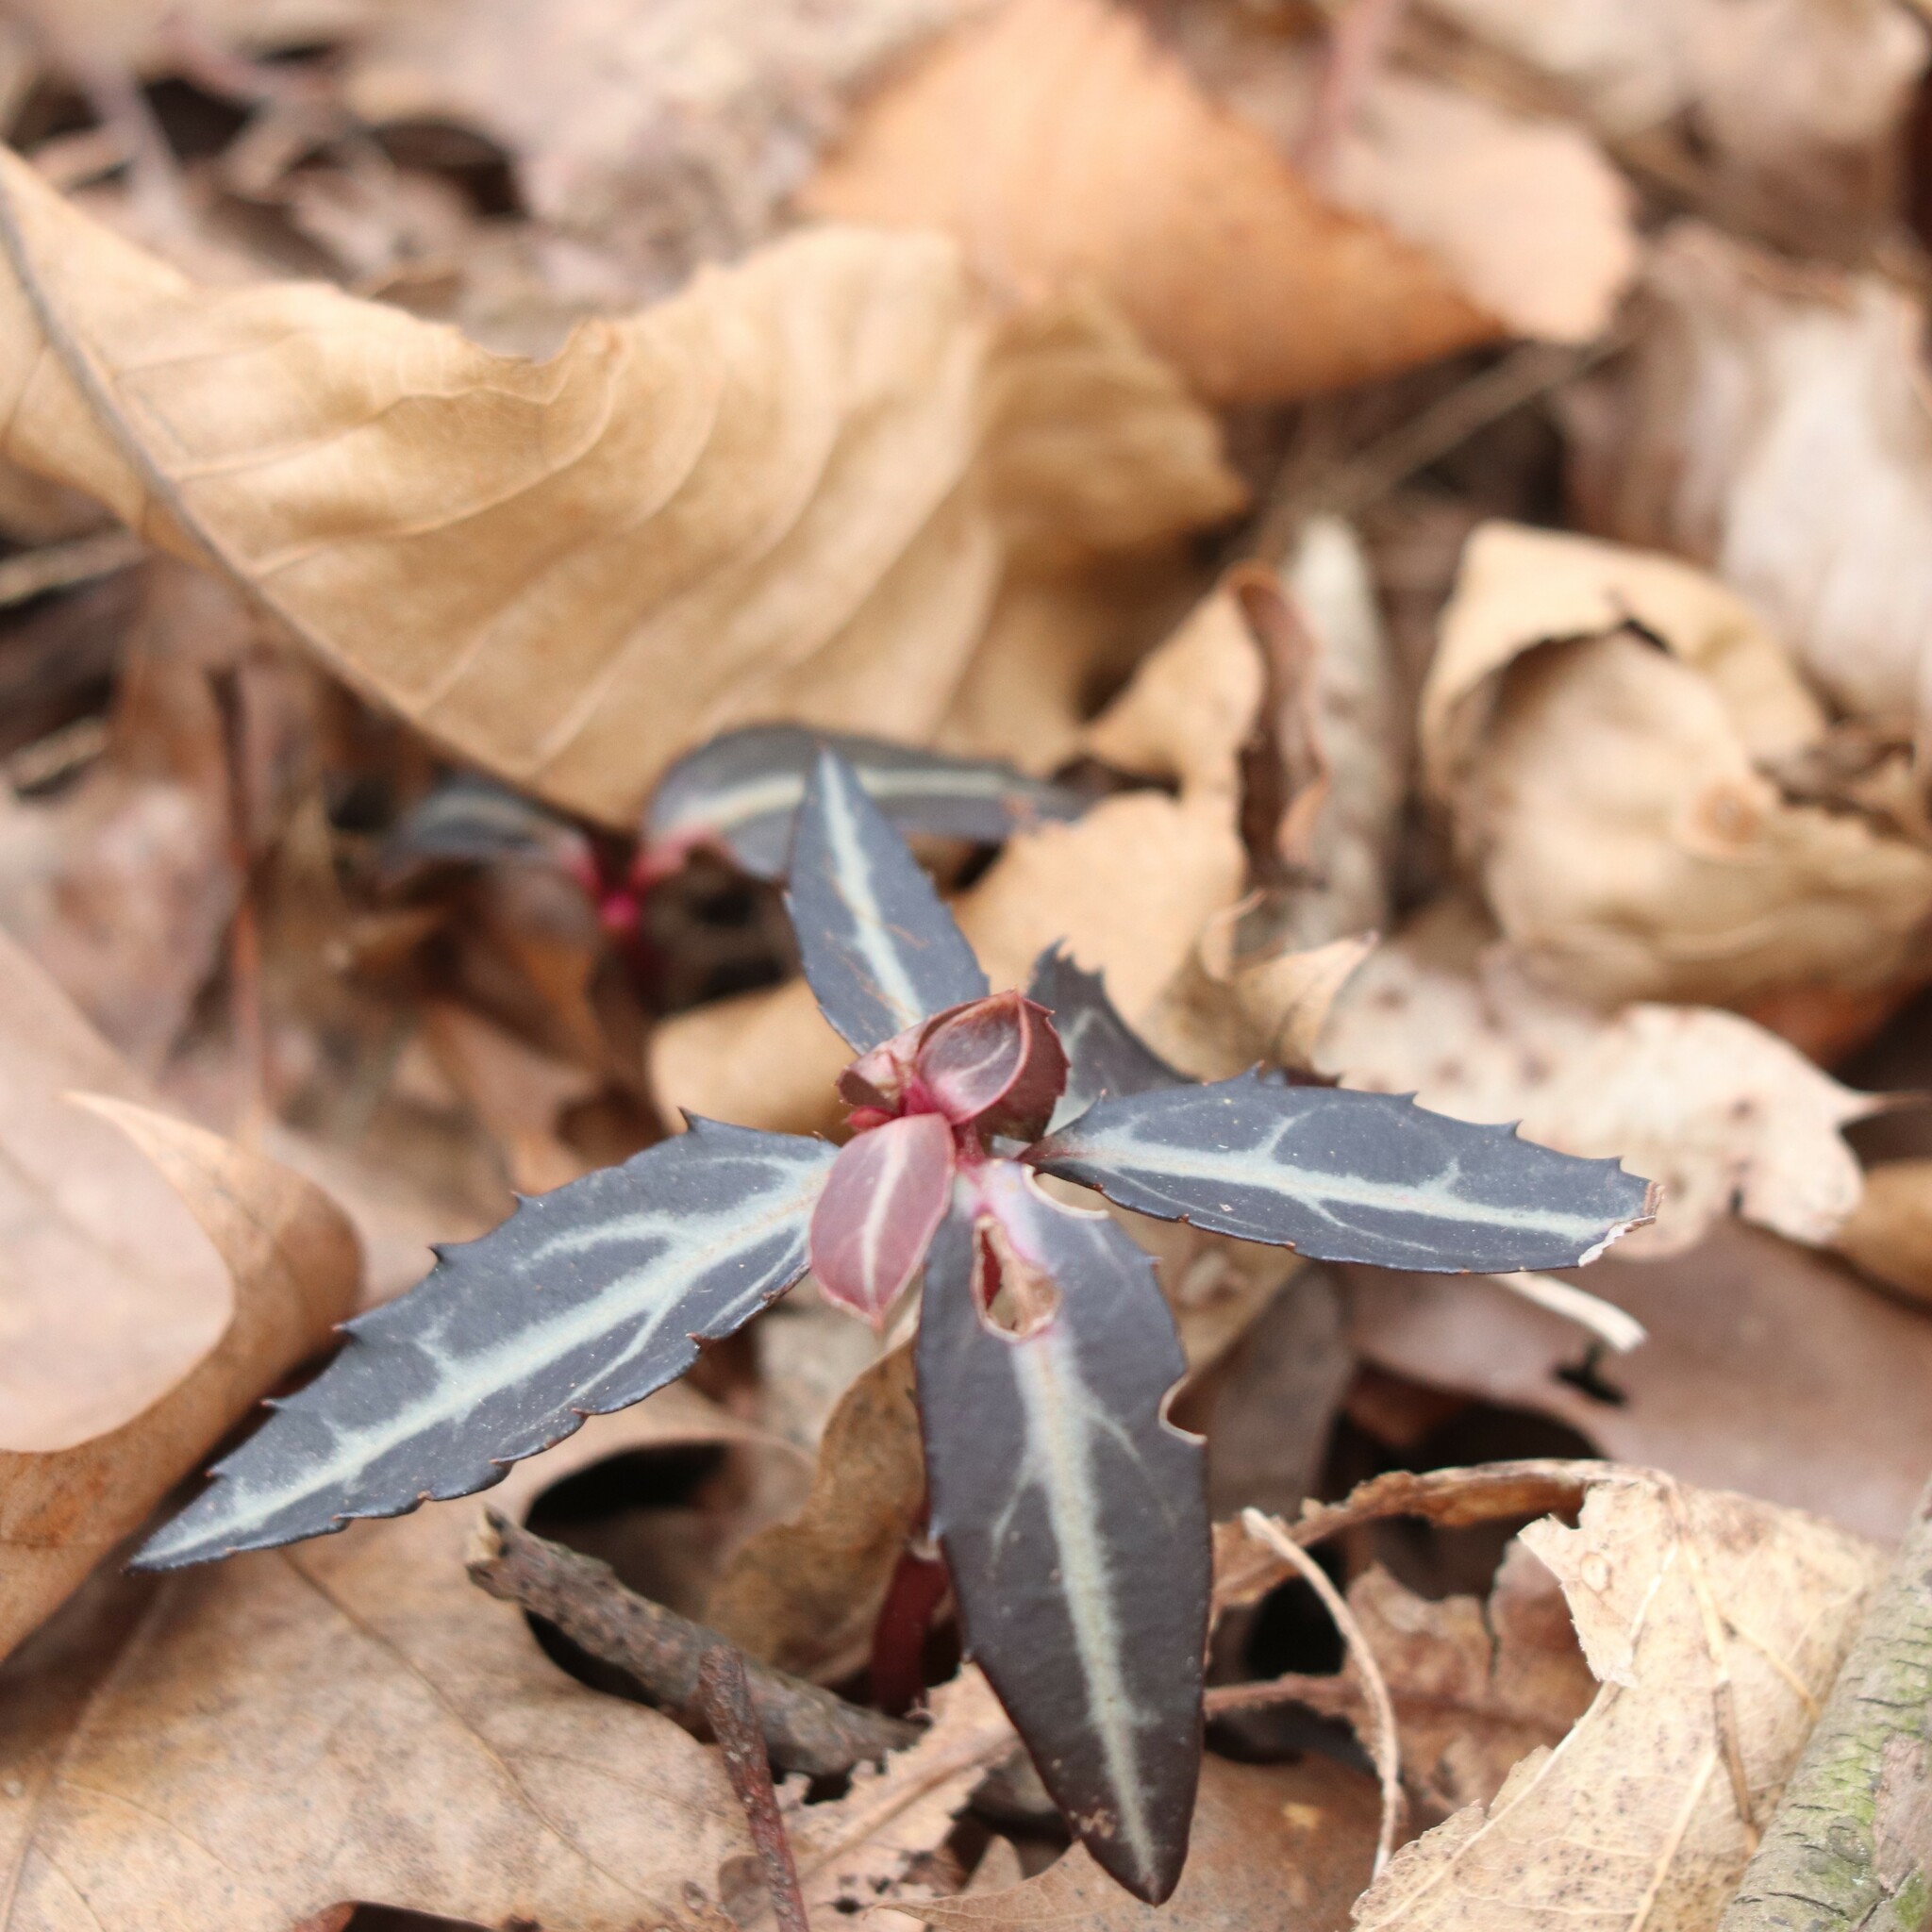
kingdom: Plantae
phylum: Tracheophyta
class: Magnoliopsida
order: Ericales
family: Ericaceae
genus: Chimaphila
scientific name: Chimaphila maculata
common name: Spotted pipsissewa
